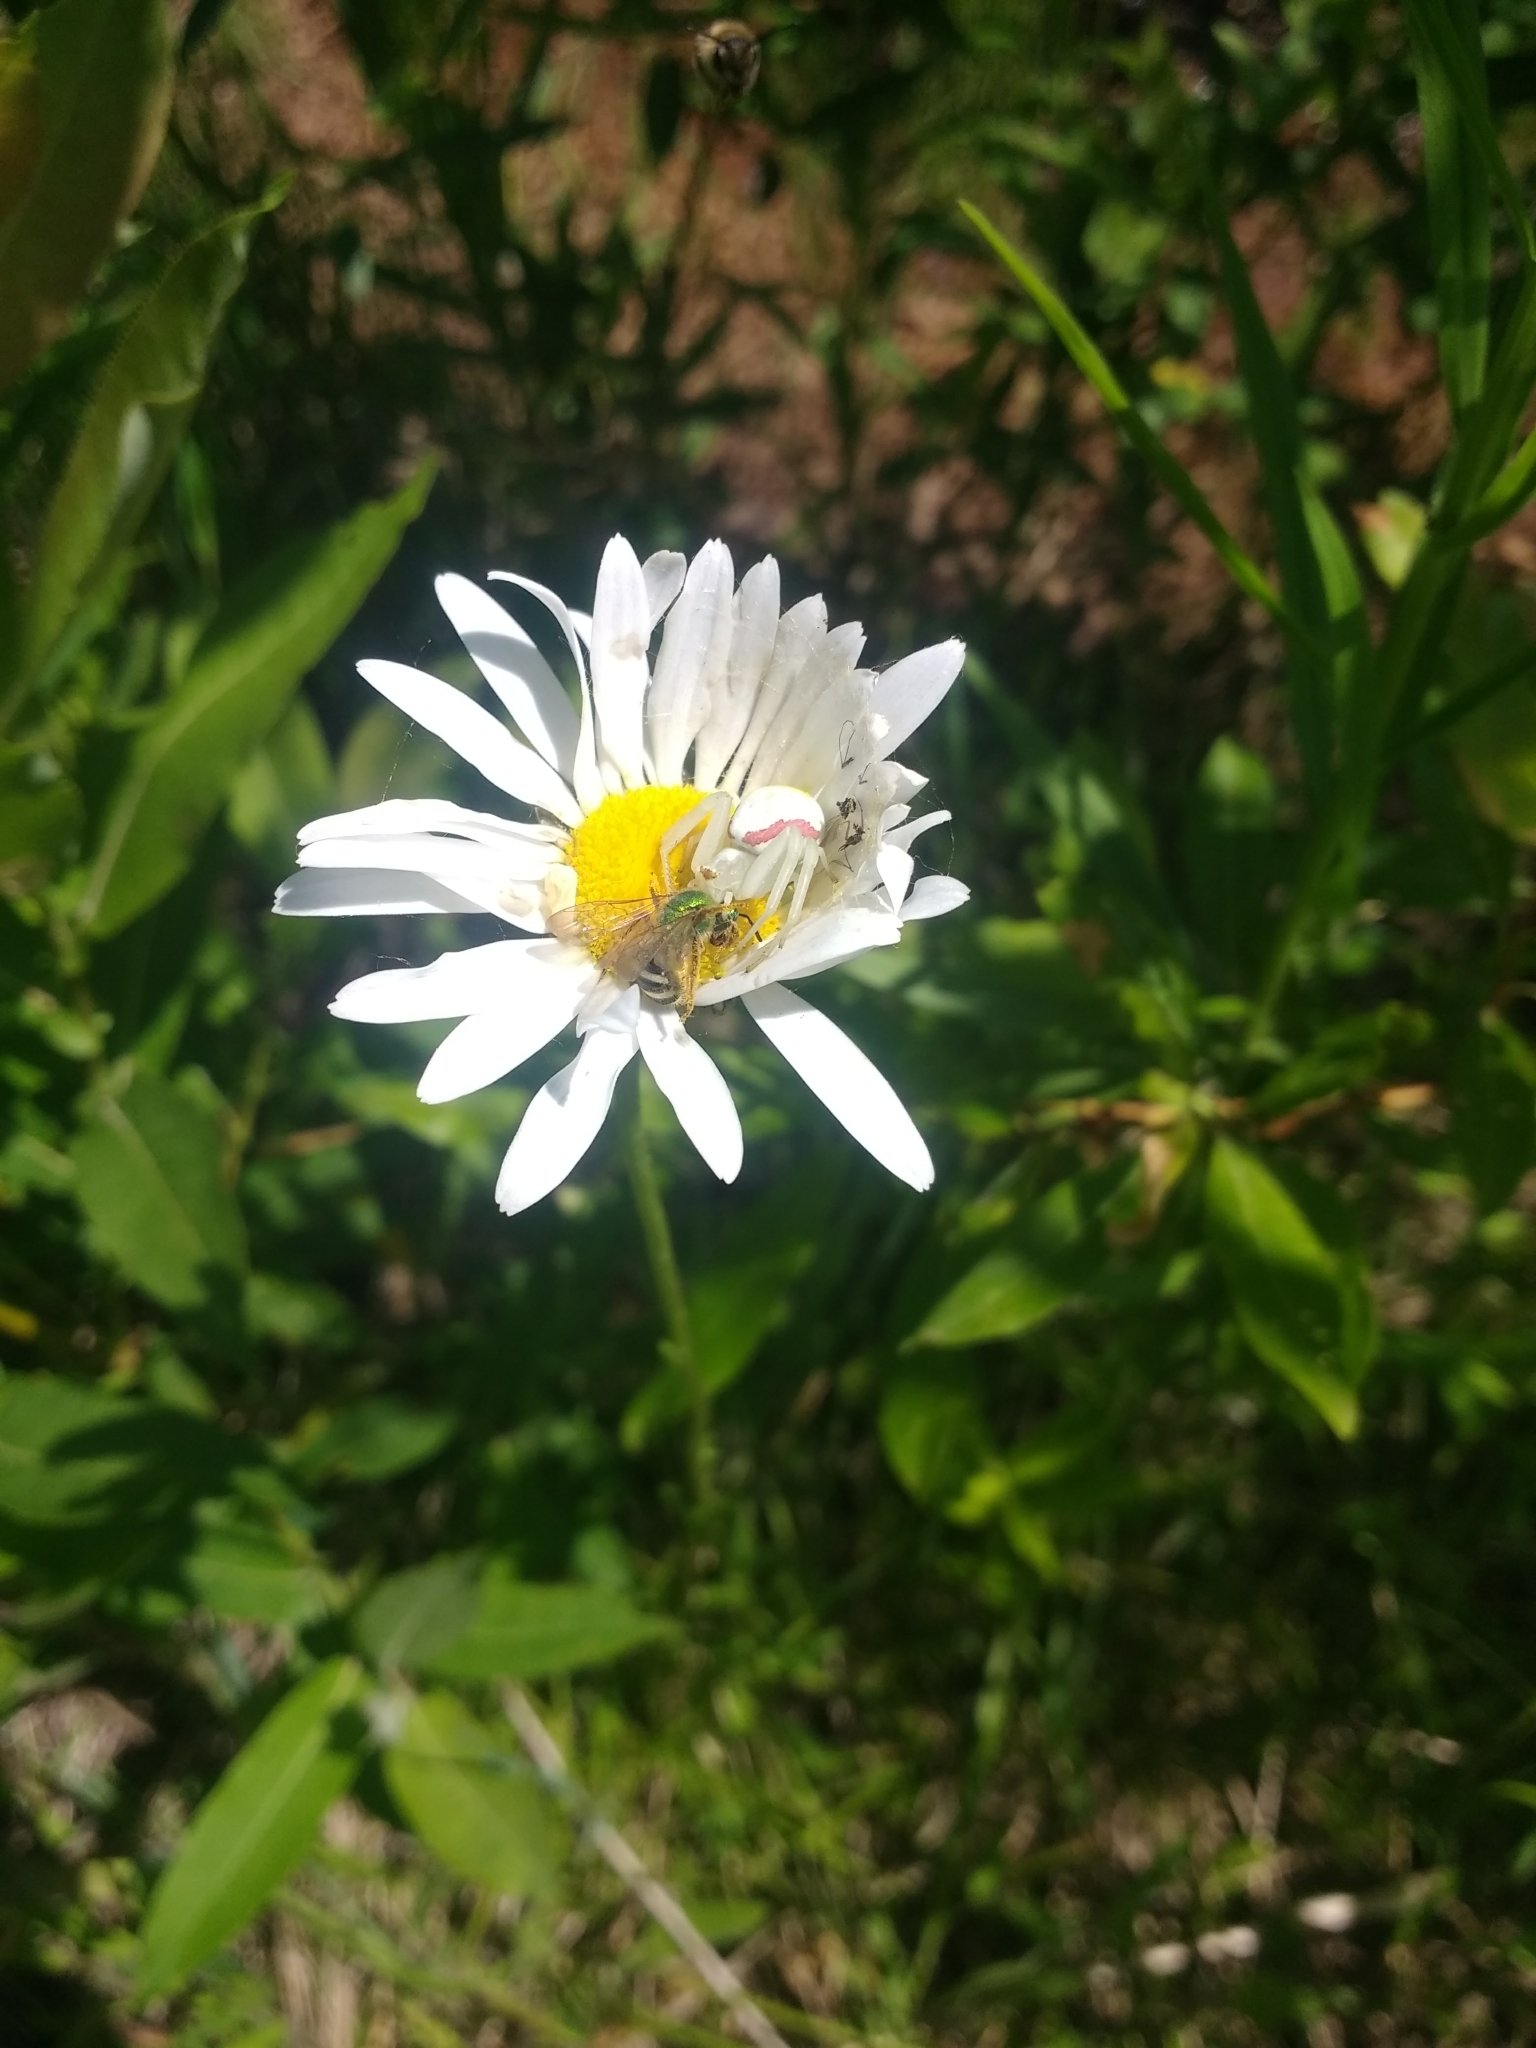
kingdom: Animalia
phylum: Arthropoda
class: Arachnida
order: Araneae
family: Thomisidae
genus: Misumena
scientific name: Misumena vatia
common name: Goldenrod crab spider
